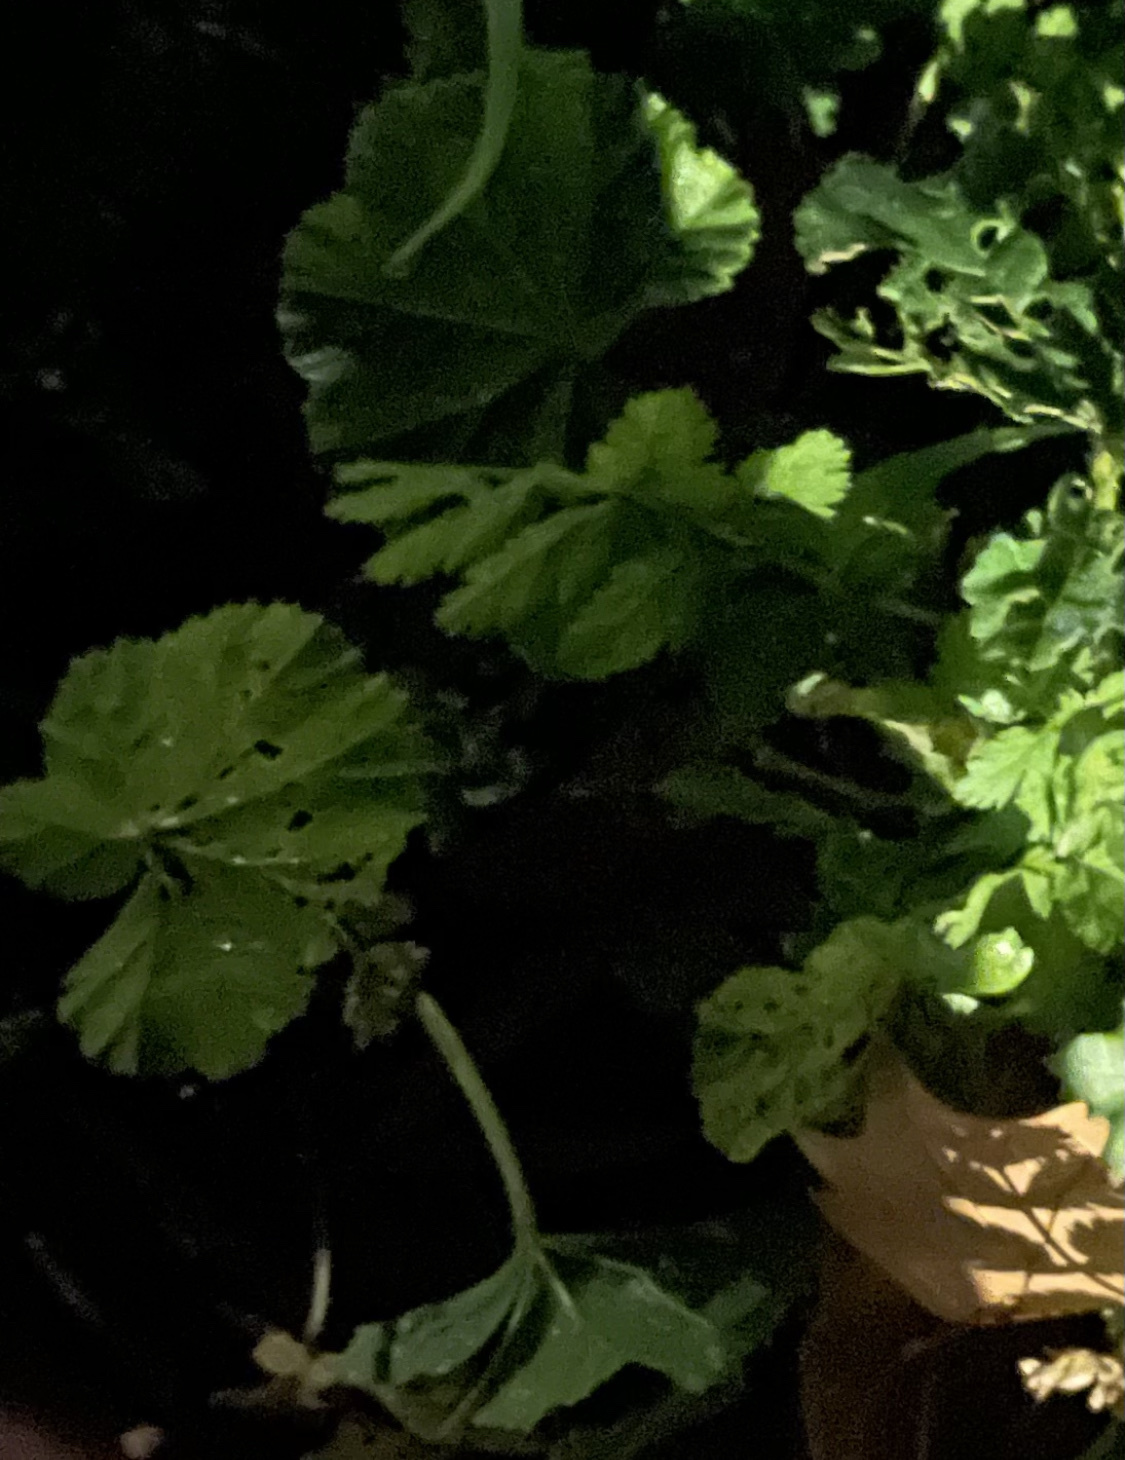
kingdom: Plantae
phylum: Tracheophyta
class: Magnoliopsida
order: Malvales
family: Malvaceae
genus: Malva
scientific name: Malva
